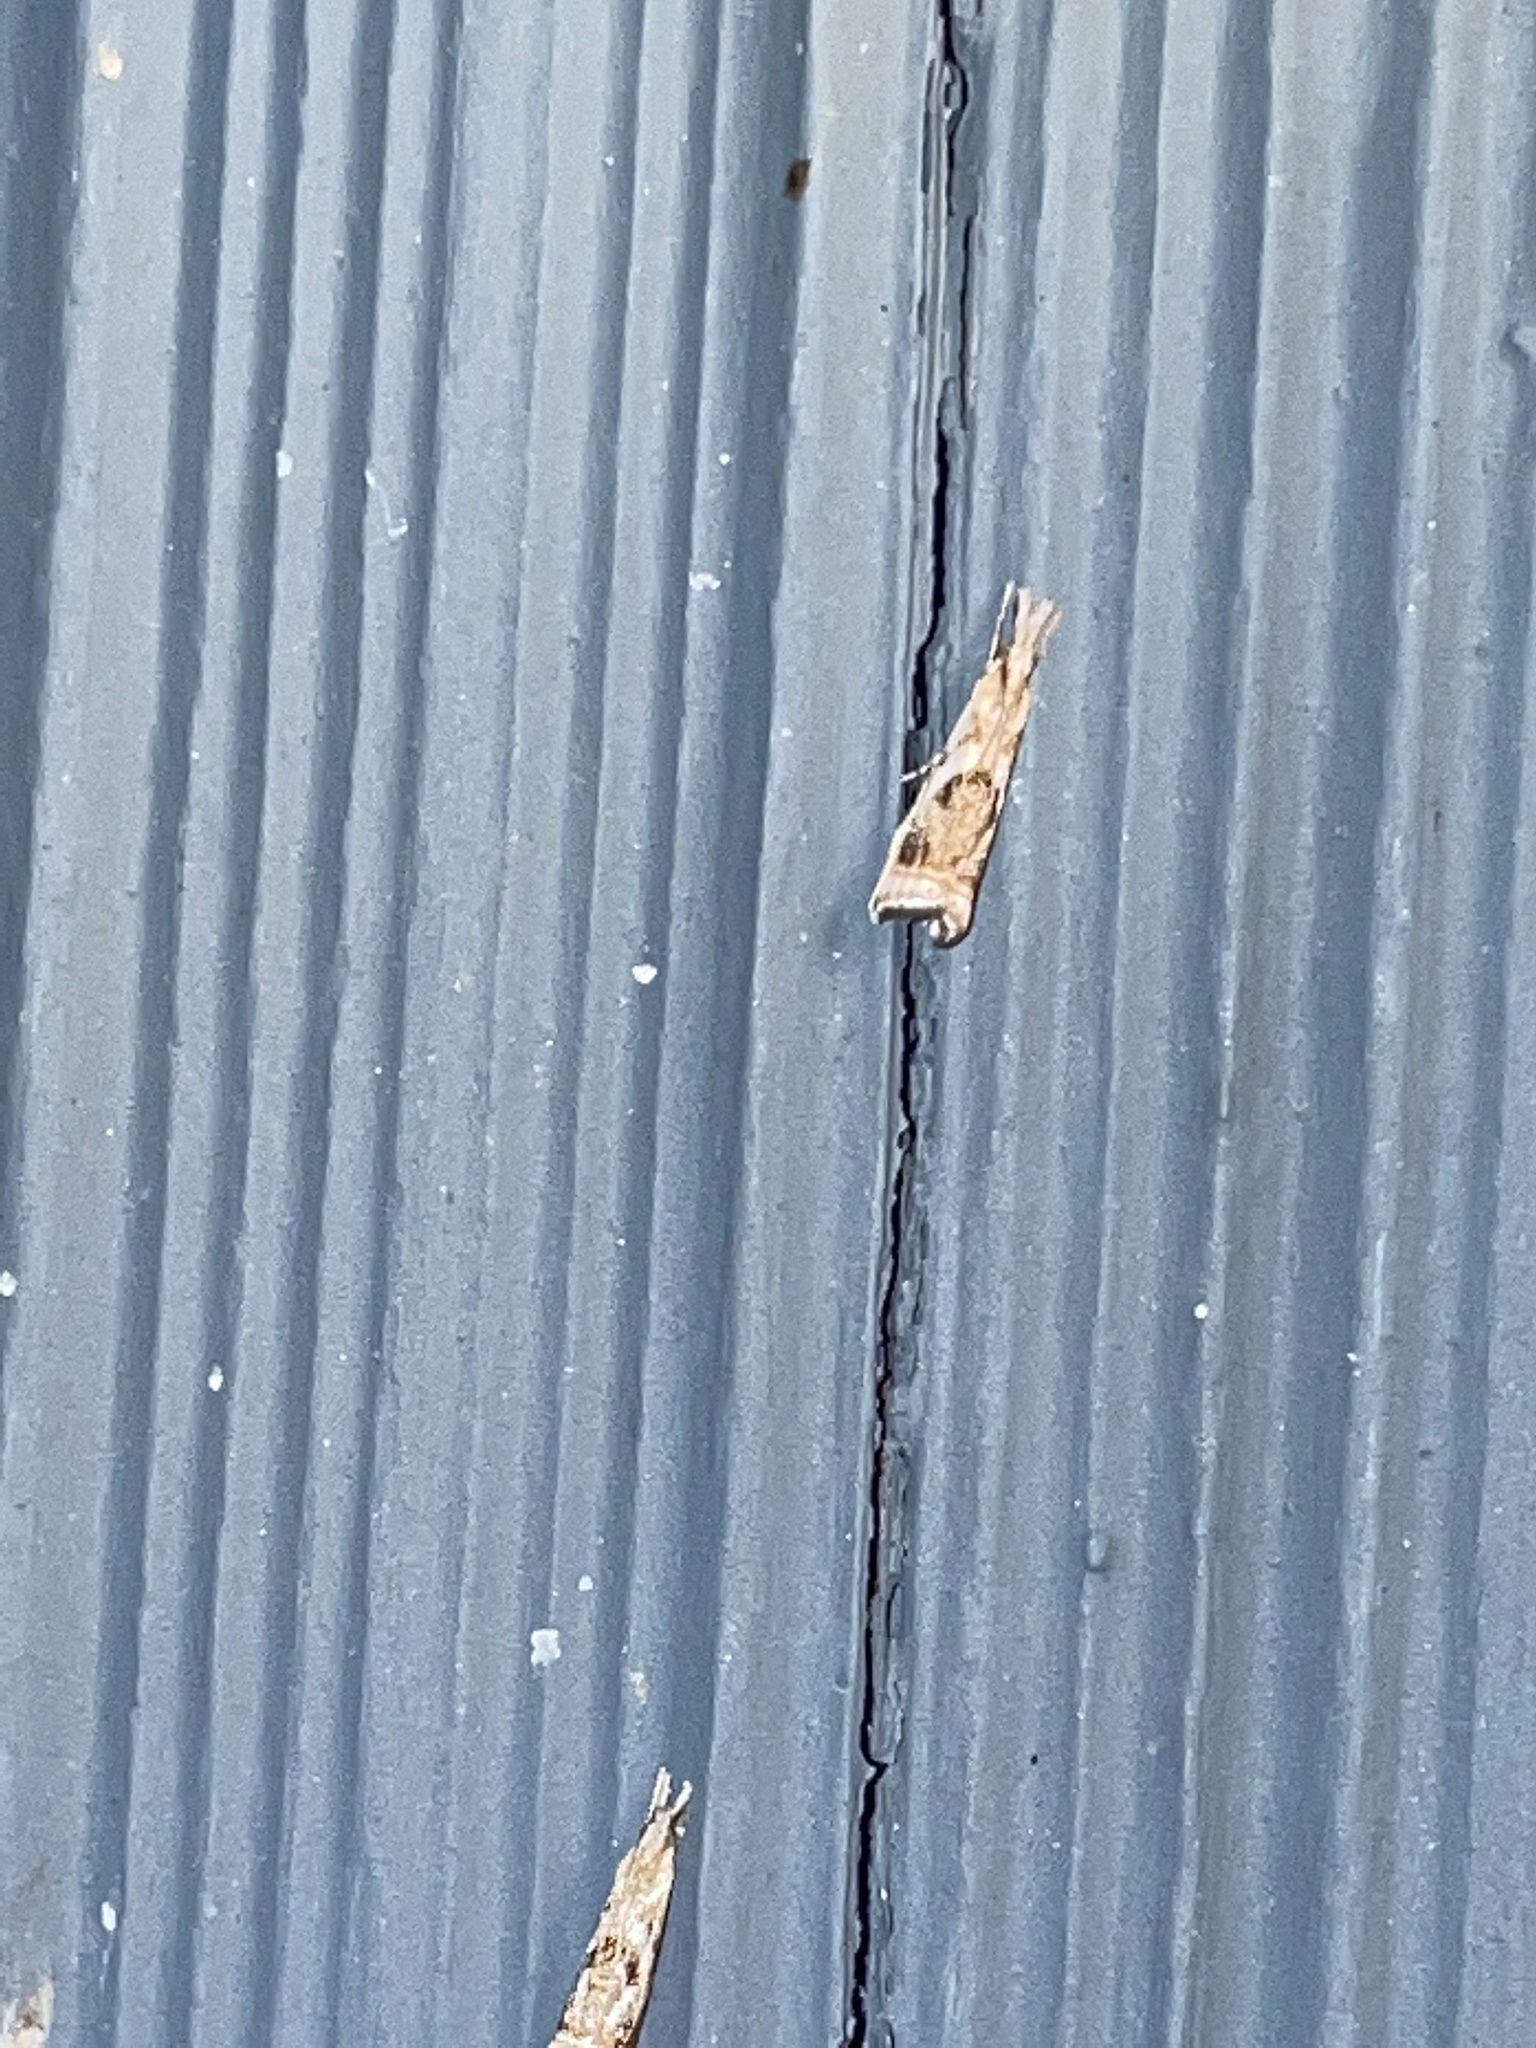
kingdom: Animalia
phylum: Arthropoda
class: Insecta
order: Lepidoptera
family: Crambidae
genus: Microcrambus
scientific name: Microcrambus elegans
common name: Elegant grass-veneer
